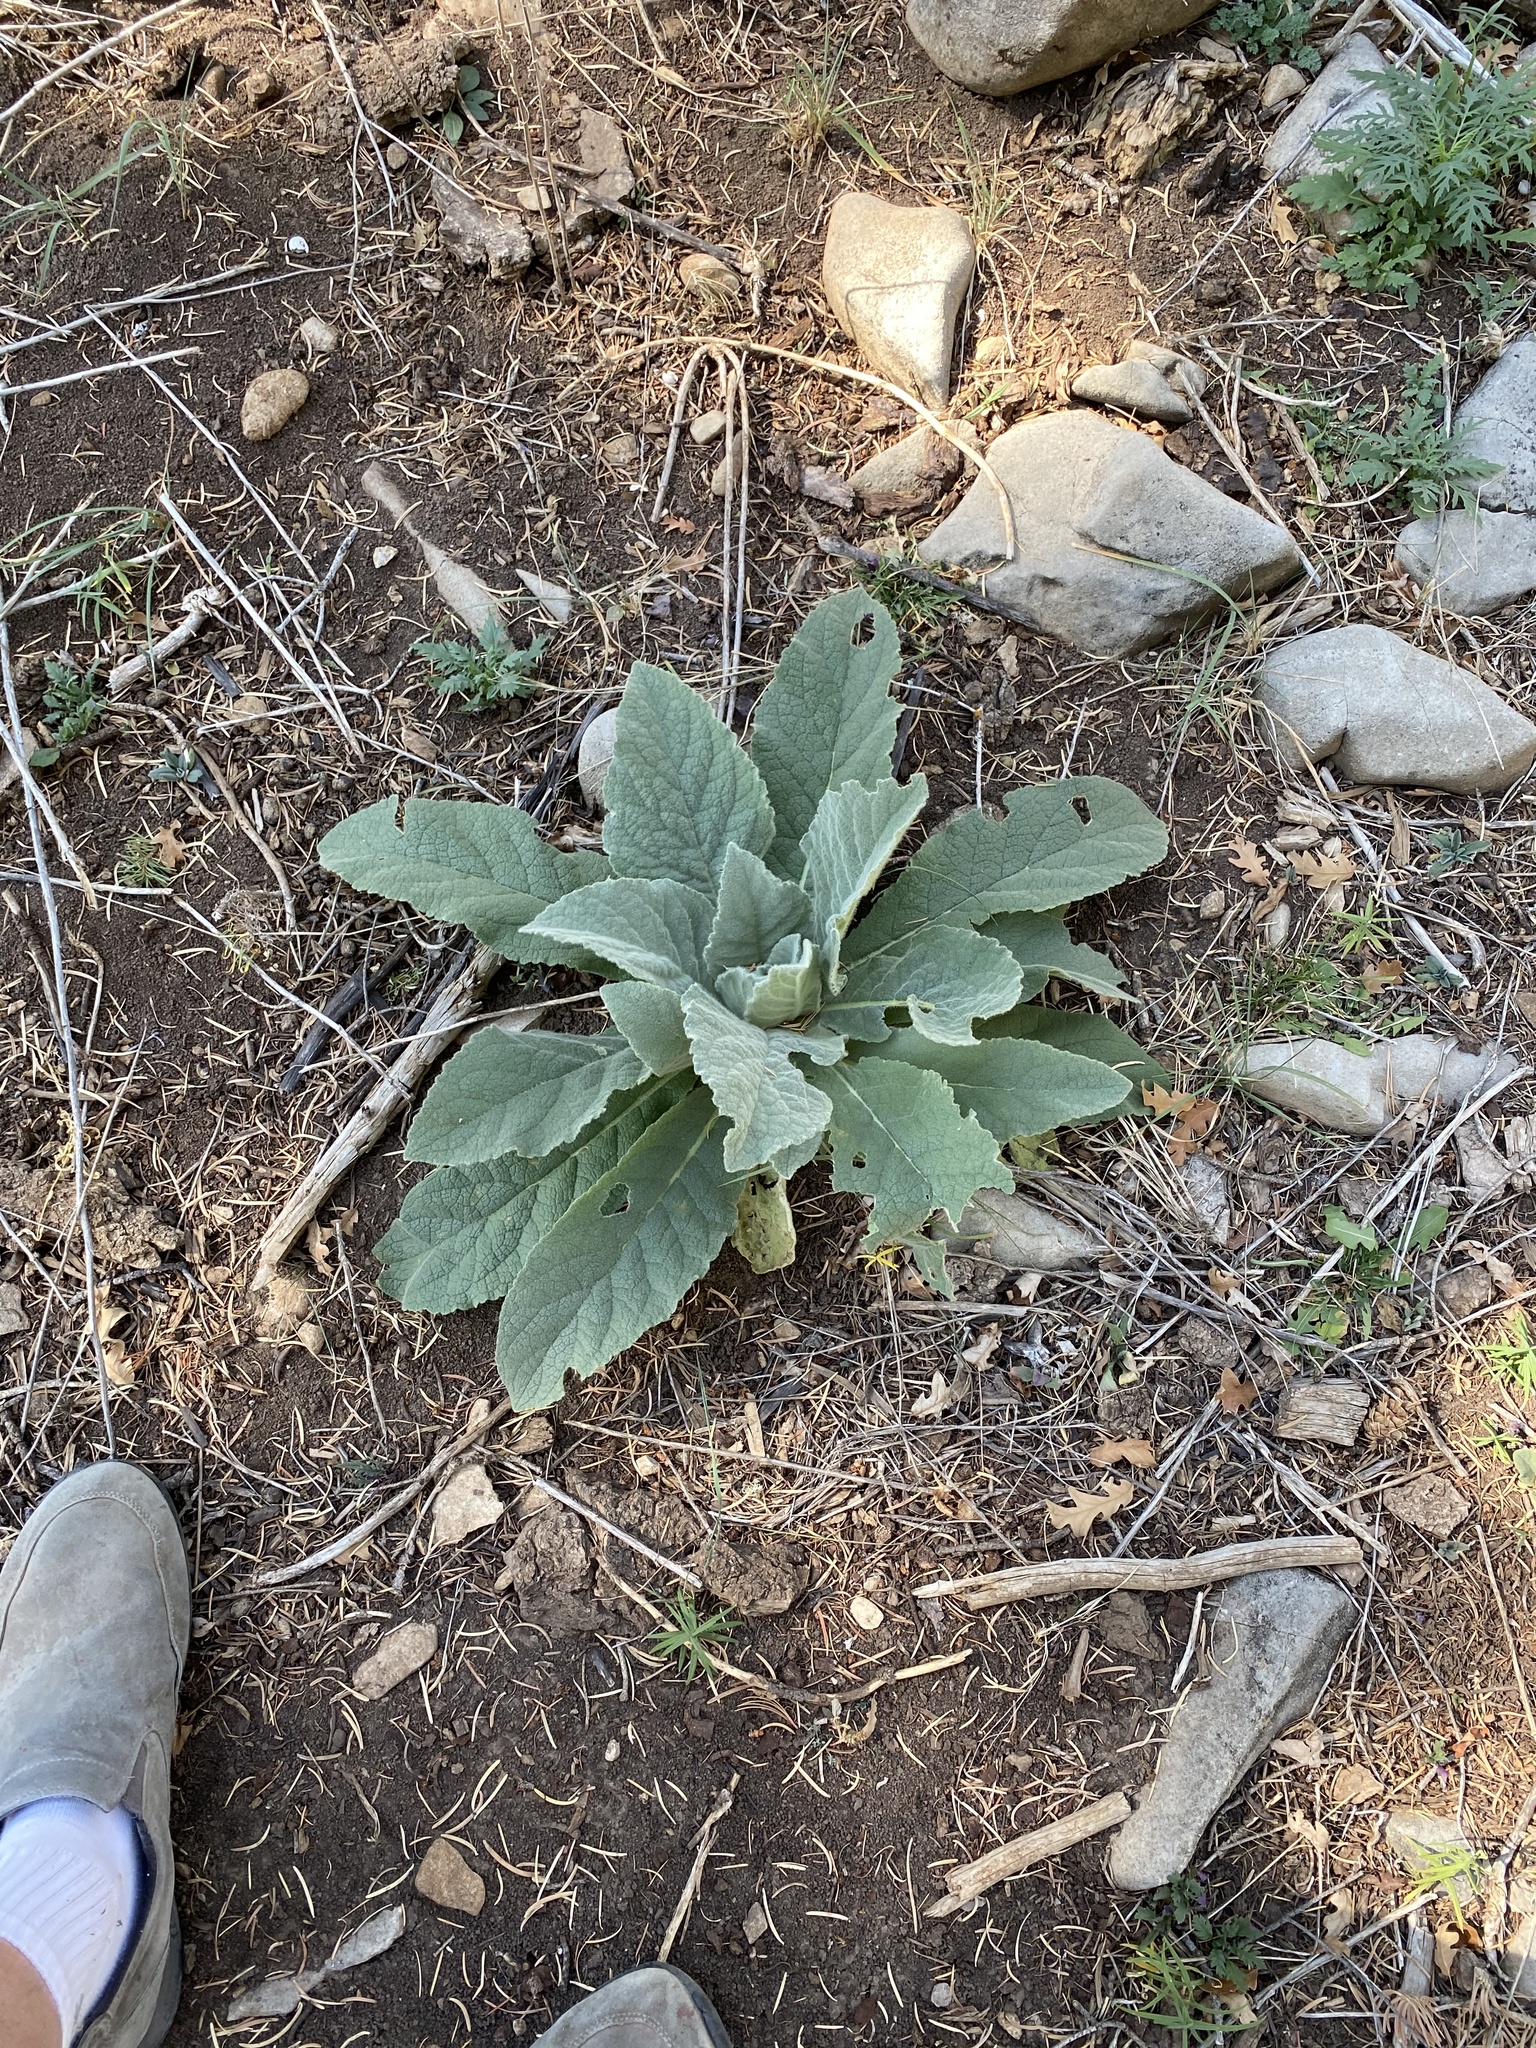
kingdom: Plantae
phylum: Tracheophyta
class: Magnoliopsida
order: Lamiales
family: Scrophulariaceae
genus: Verbascum
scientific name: Verbascum thapsus
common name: Common mullein
